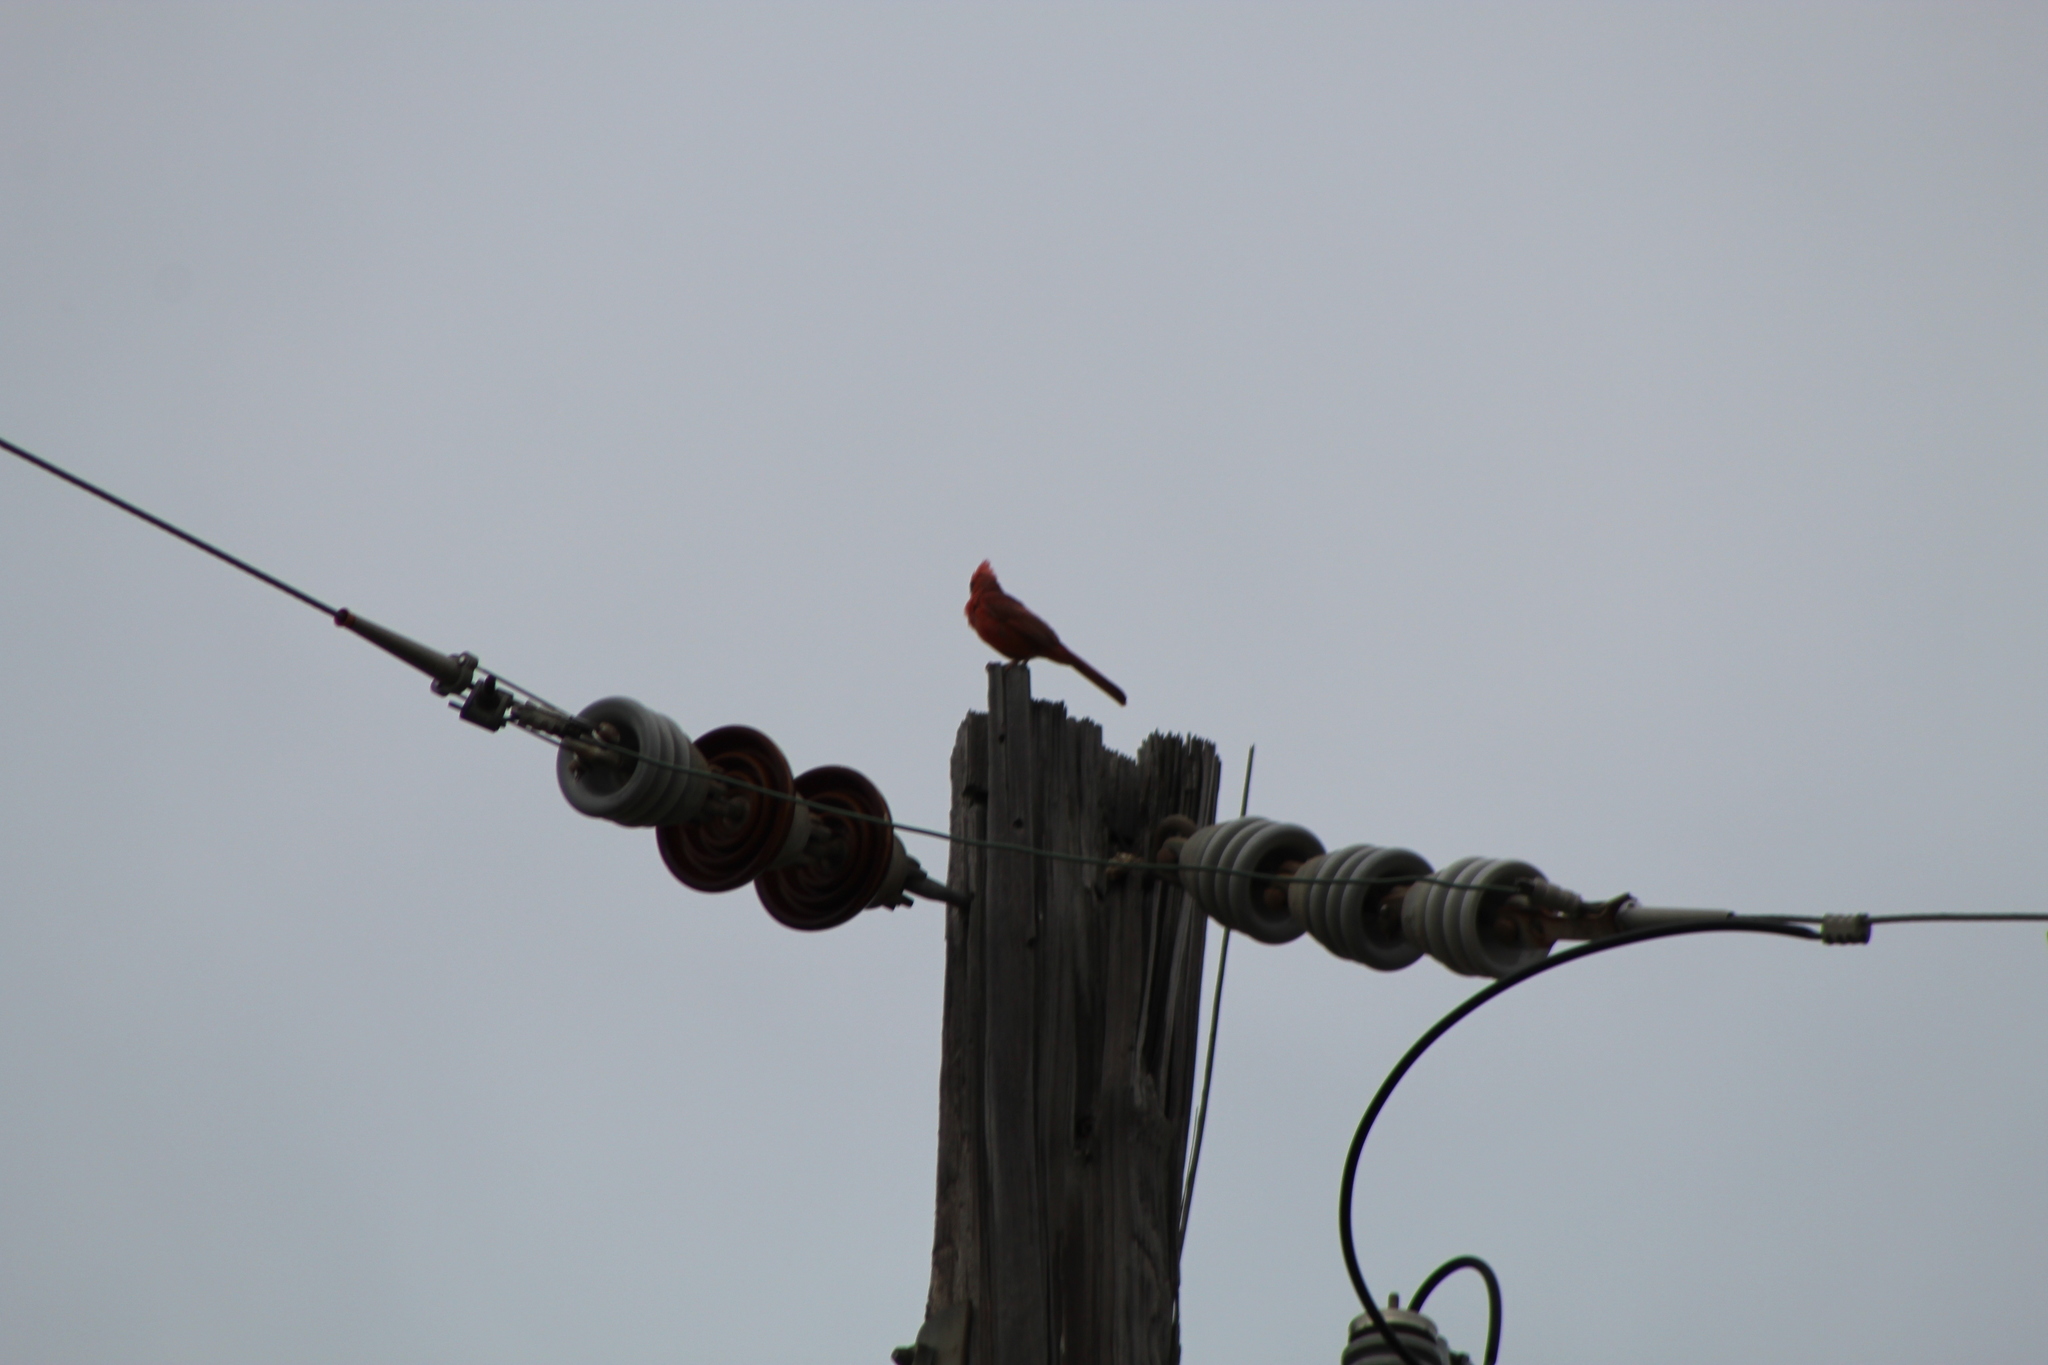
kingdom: Animalia
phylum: Chordata
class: Aves
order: Passeriformes
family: Cardinalidae
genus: Cardinalis
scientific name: Cardinalis cardinalis
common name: Northern cardinal
